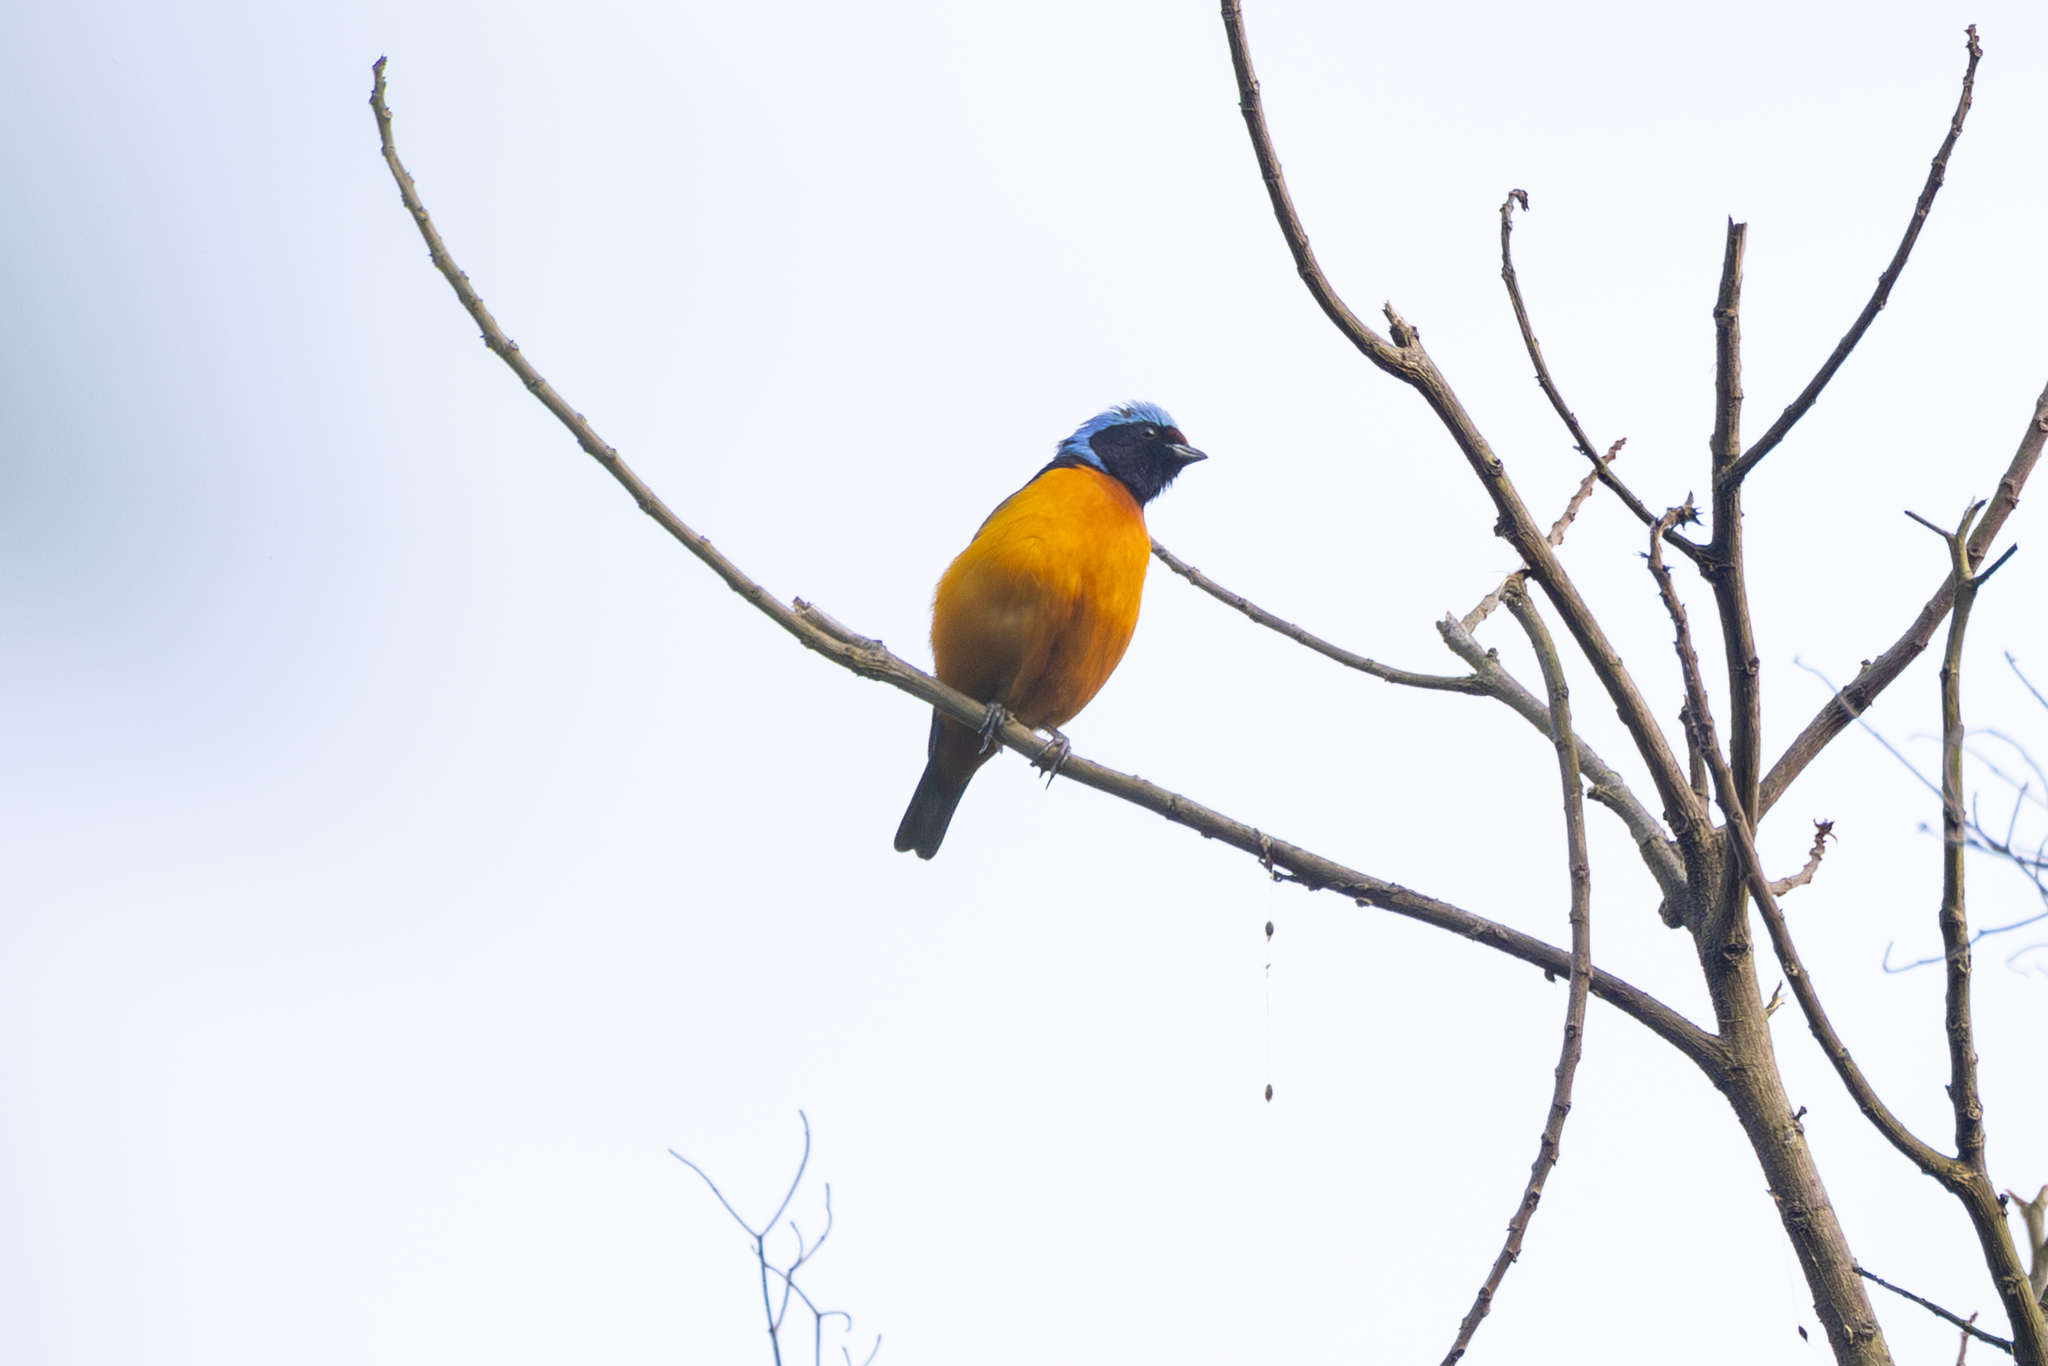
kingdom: Animalia
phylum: Chordata
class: Aves
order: Passeriformes
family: Fringillidae
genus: Euphonia
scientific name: Euphonia elegantissima
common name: Elegant euphonia
